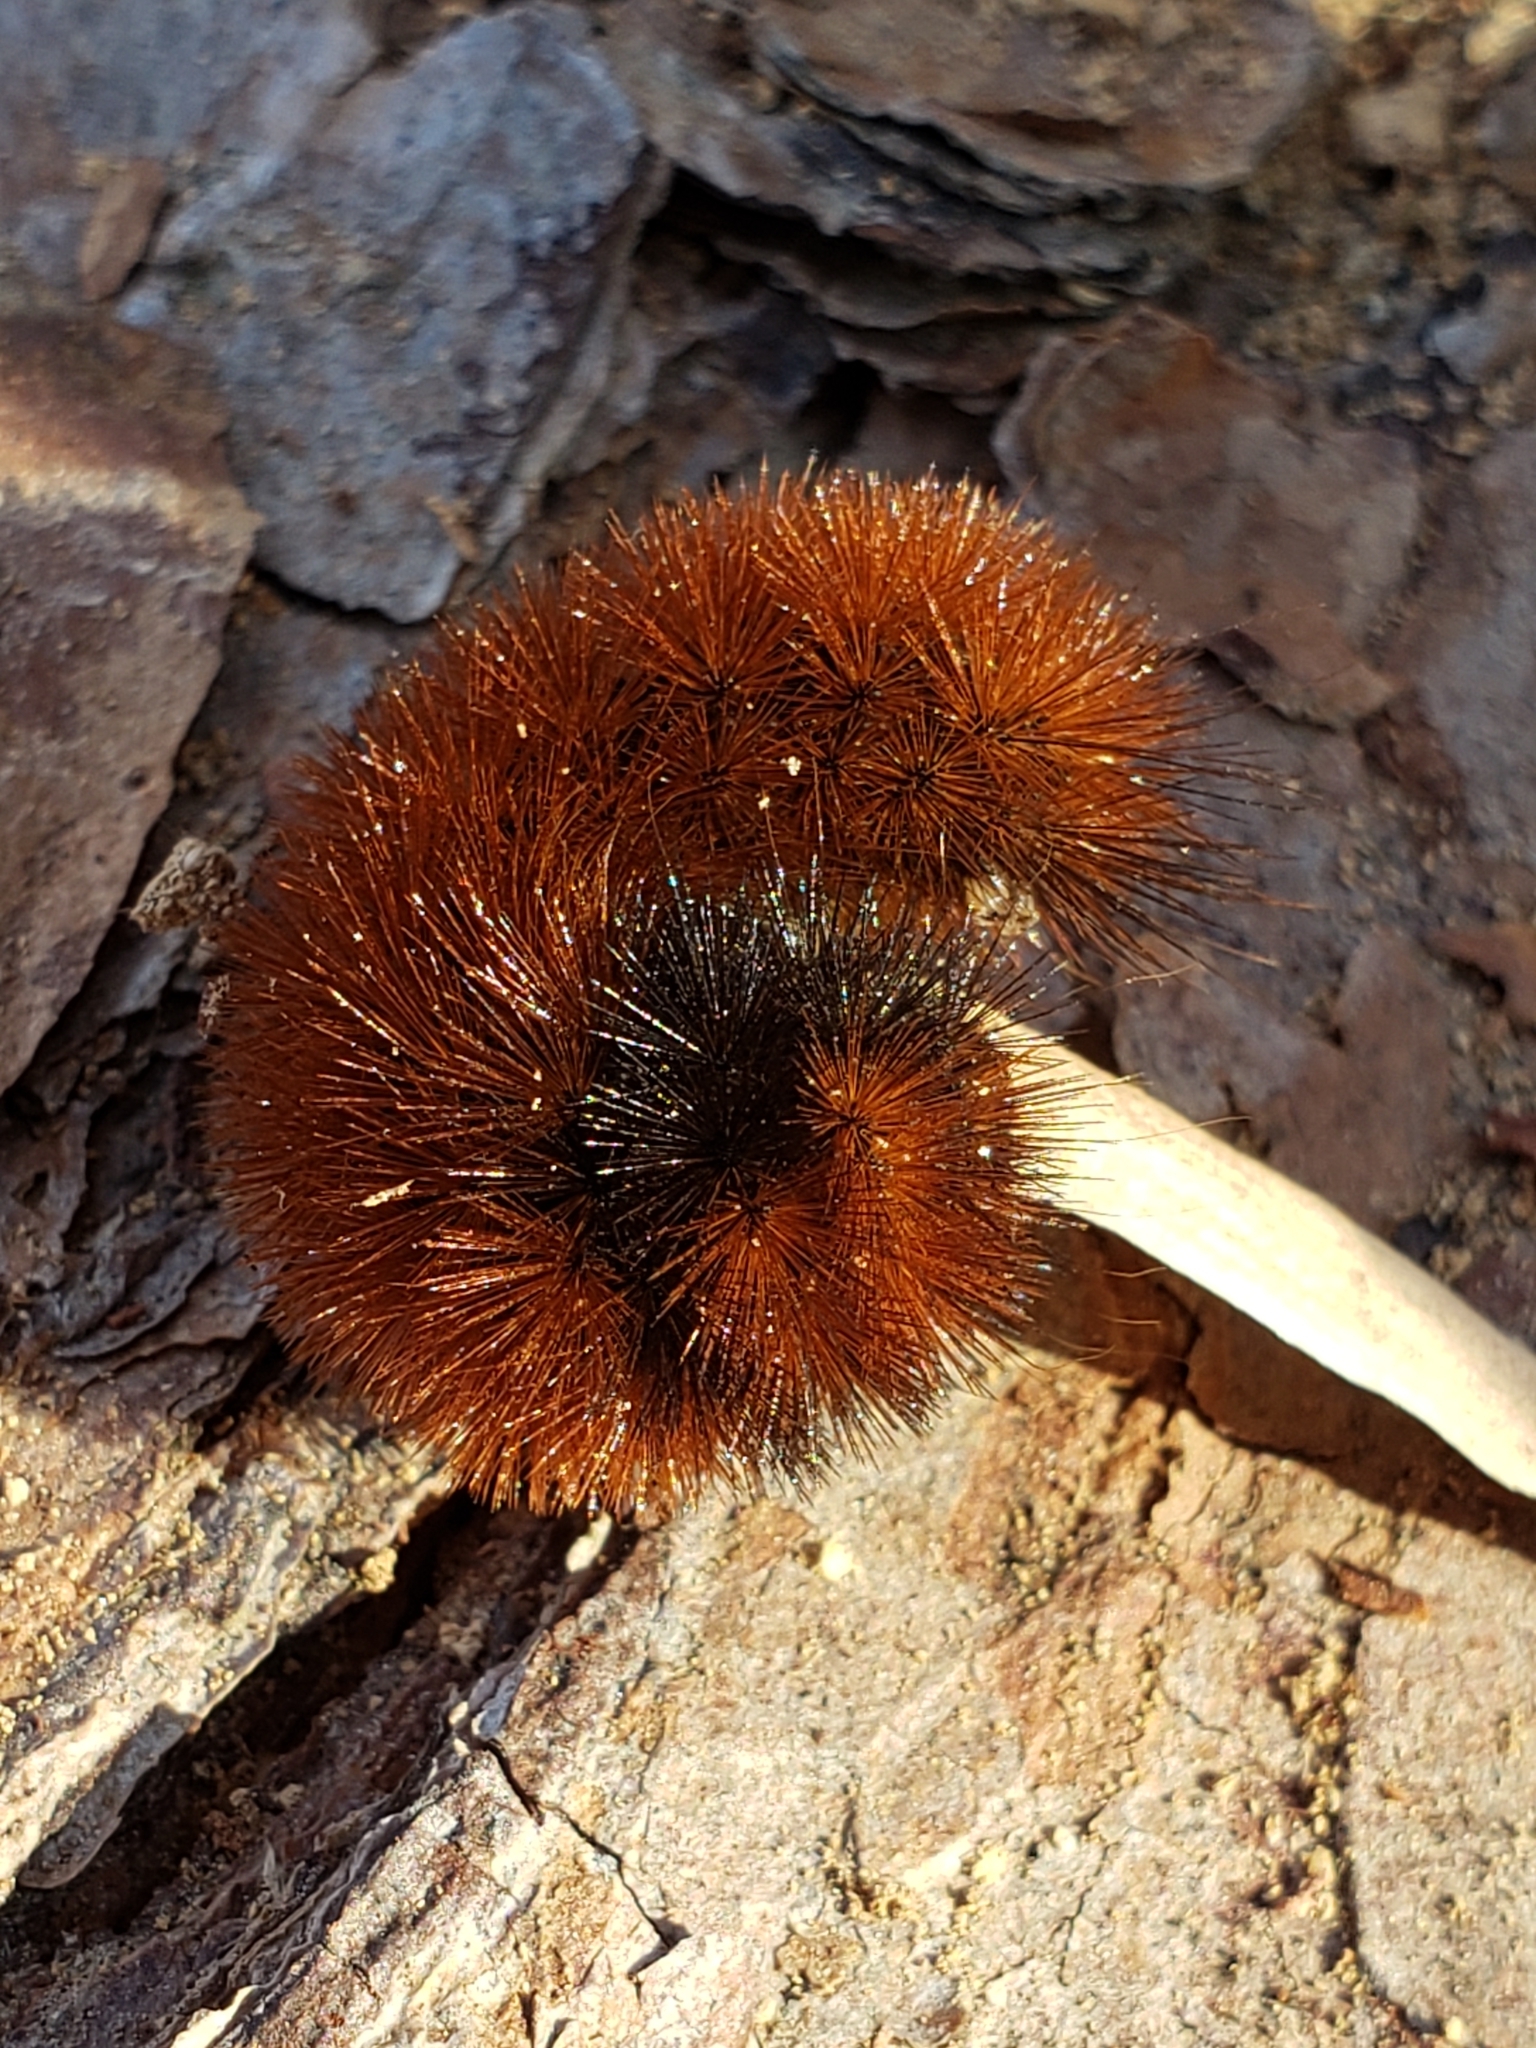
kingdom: Animalia
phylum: Arthropoda
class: Insecta
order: Lepidoptera
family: Erebidae
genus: Pyrrharctia
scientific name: Pyrrharctia isabella
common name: Isabella tiger moth
